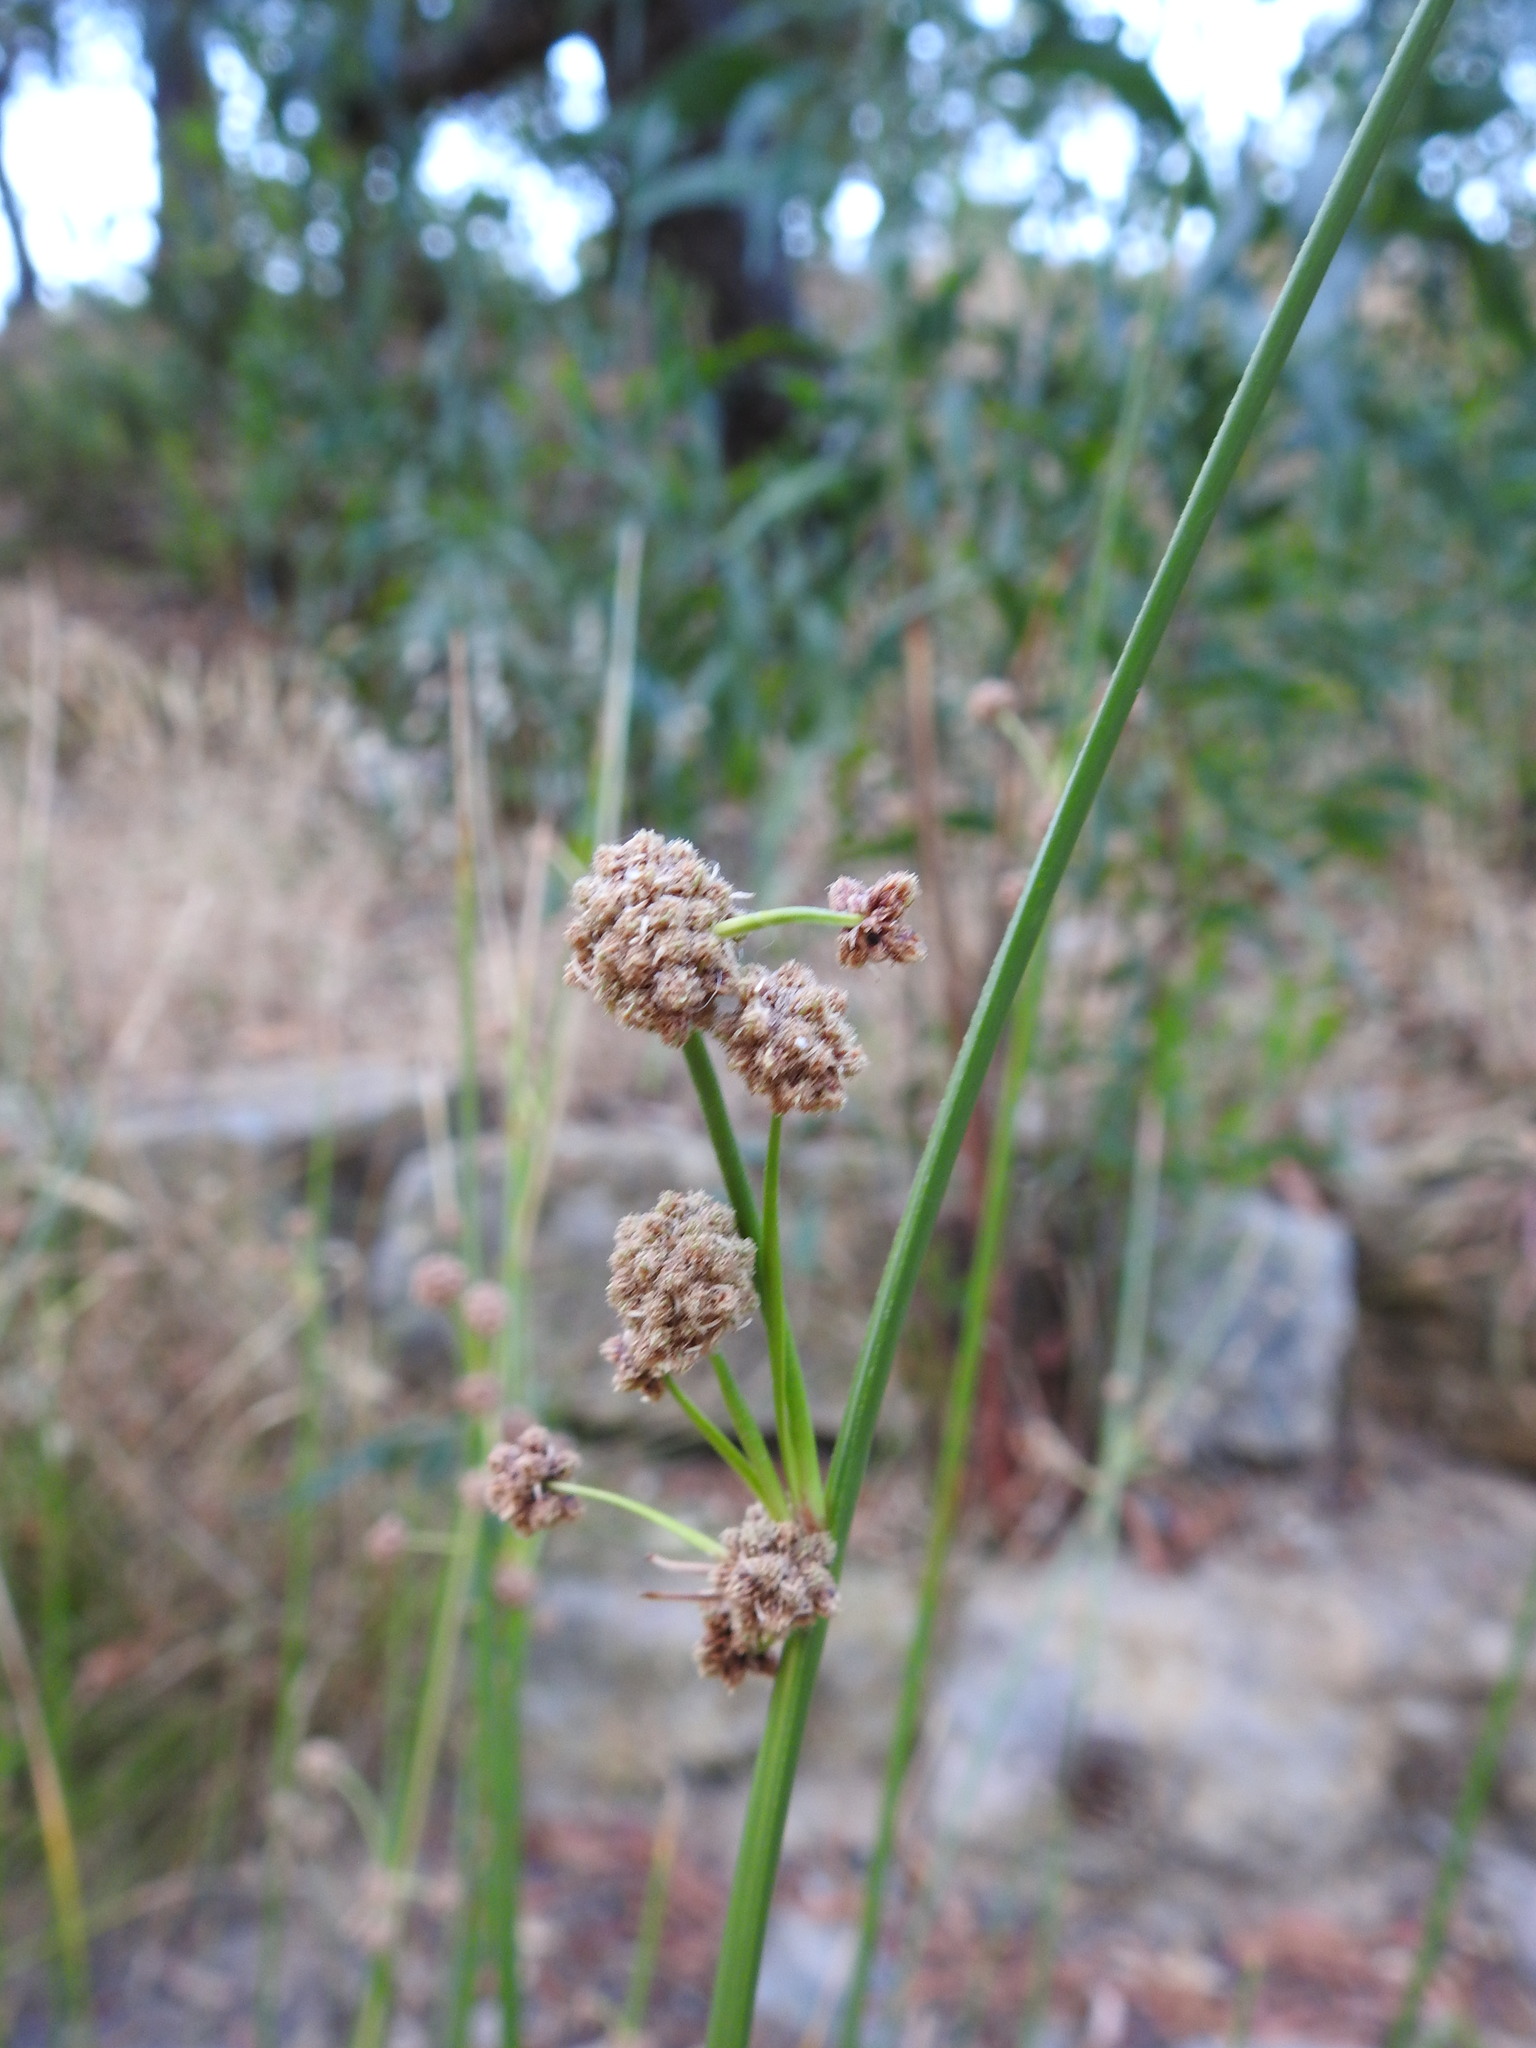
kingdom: Plantae
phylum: Tracheophyta
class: Liliopsida
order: Poales
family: Cyperaceae
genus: Scirpoides
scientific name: Scirpoides holoschoenus
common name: Round-headed club-rush
